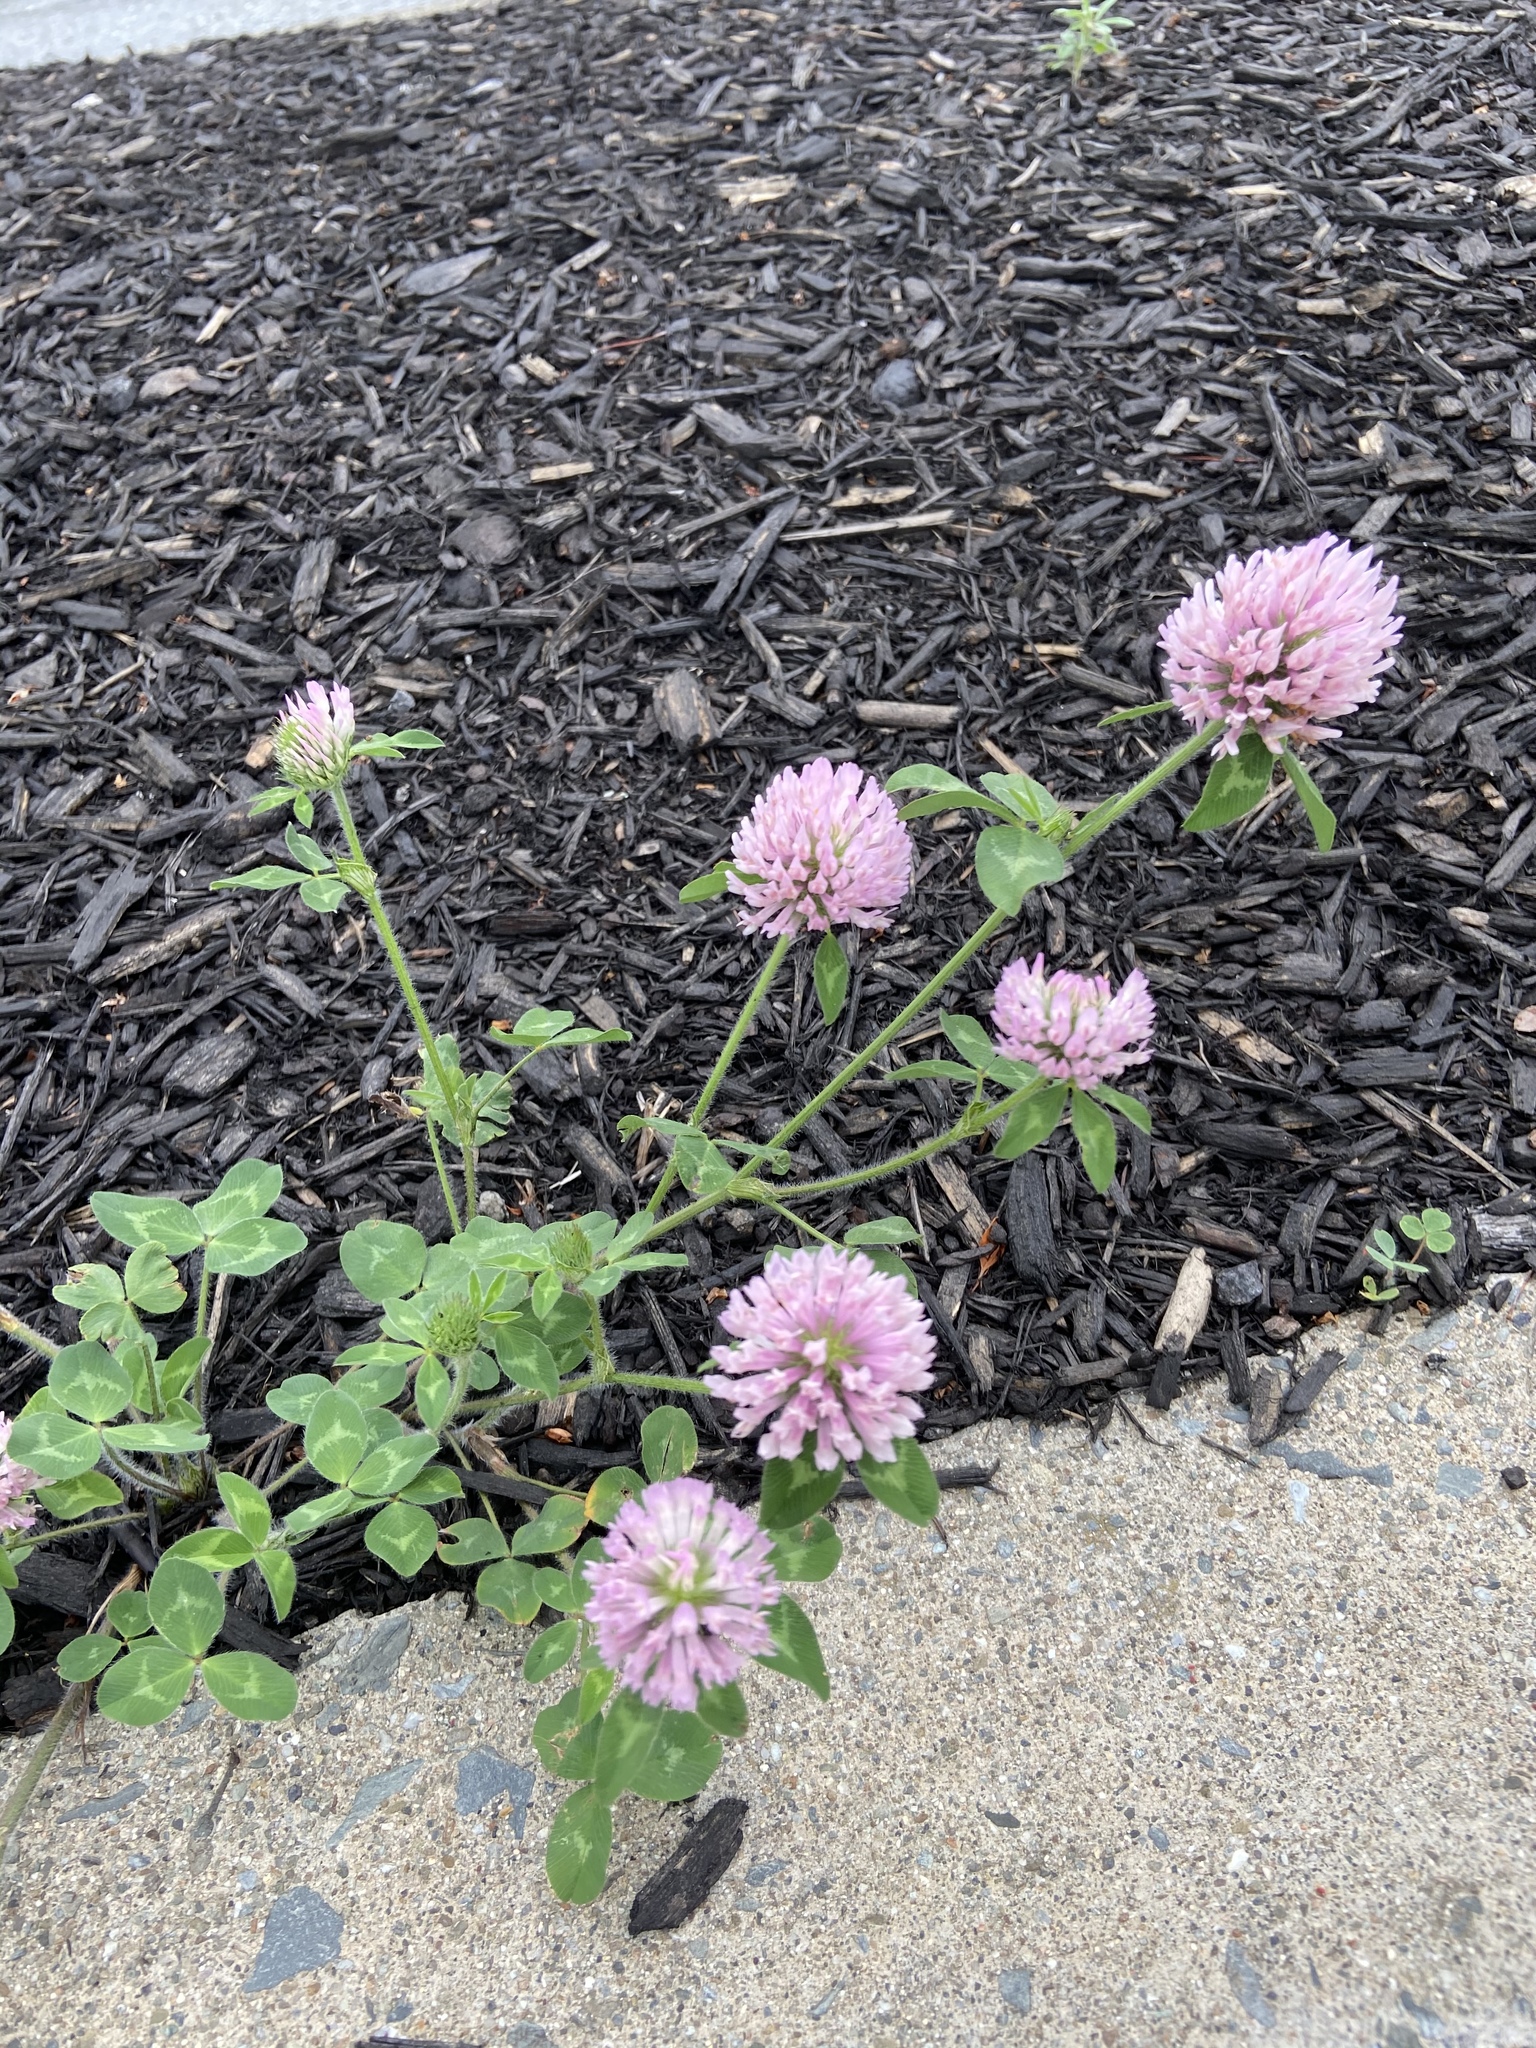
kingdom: Plantae
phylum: Tracheophyta
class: Magnoliopsida
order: Fabales
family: Fabaceae
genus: Trifolium
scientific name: Trifolium pratense
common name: Red clover
